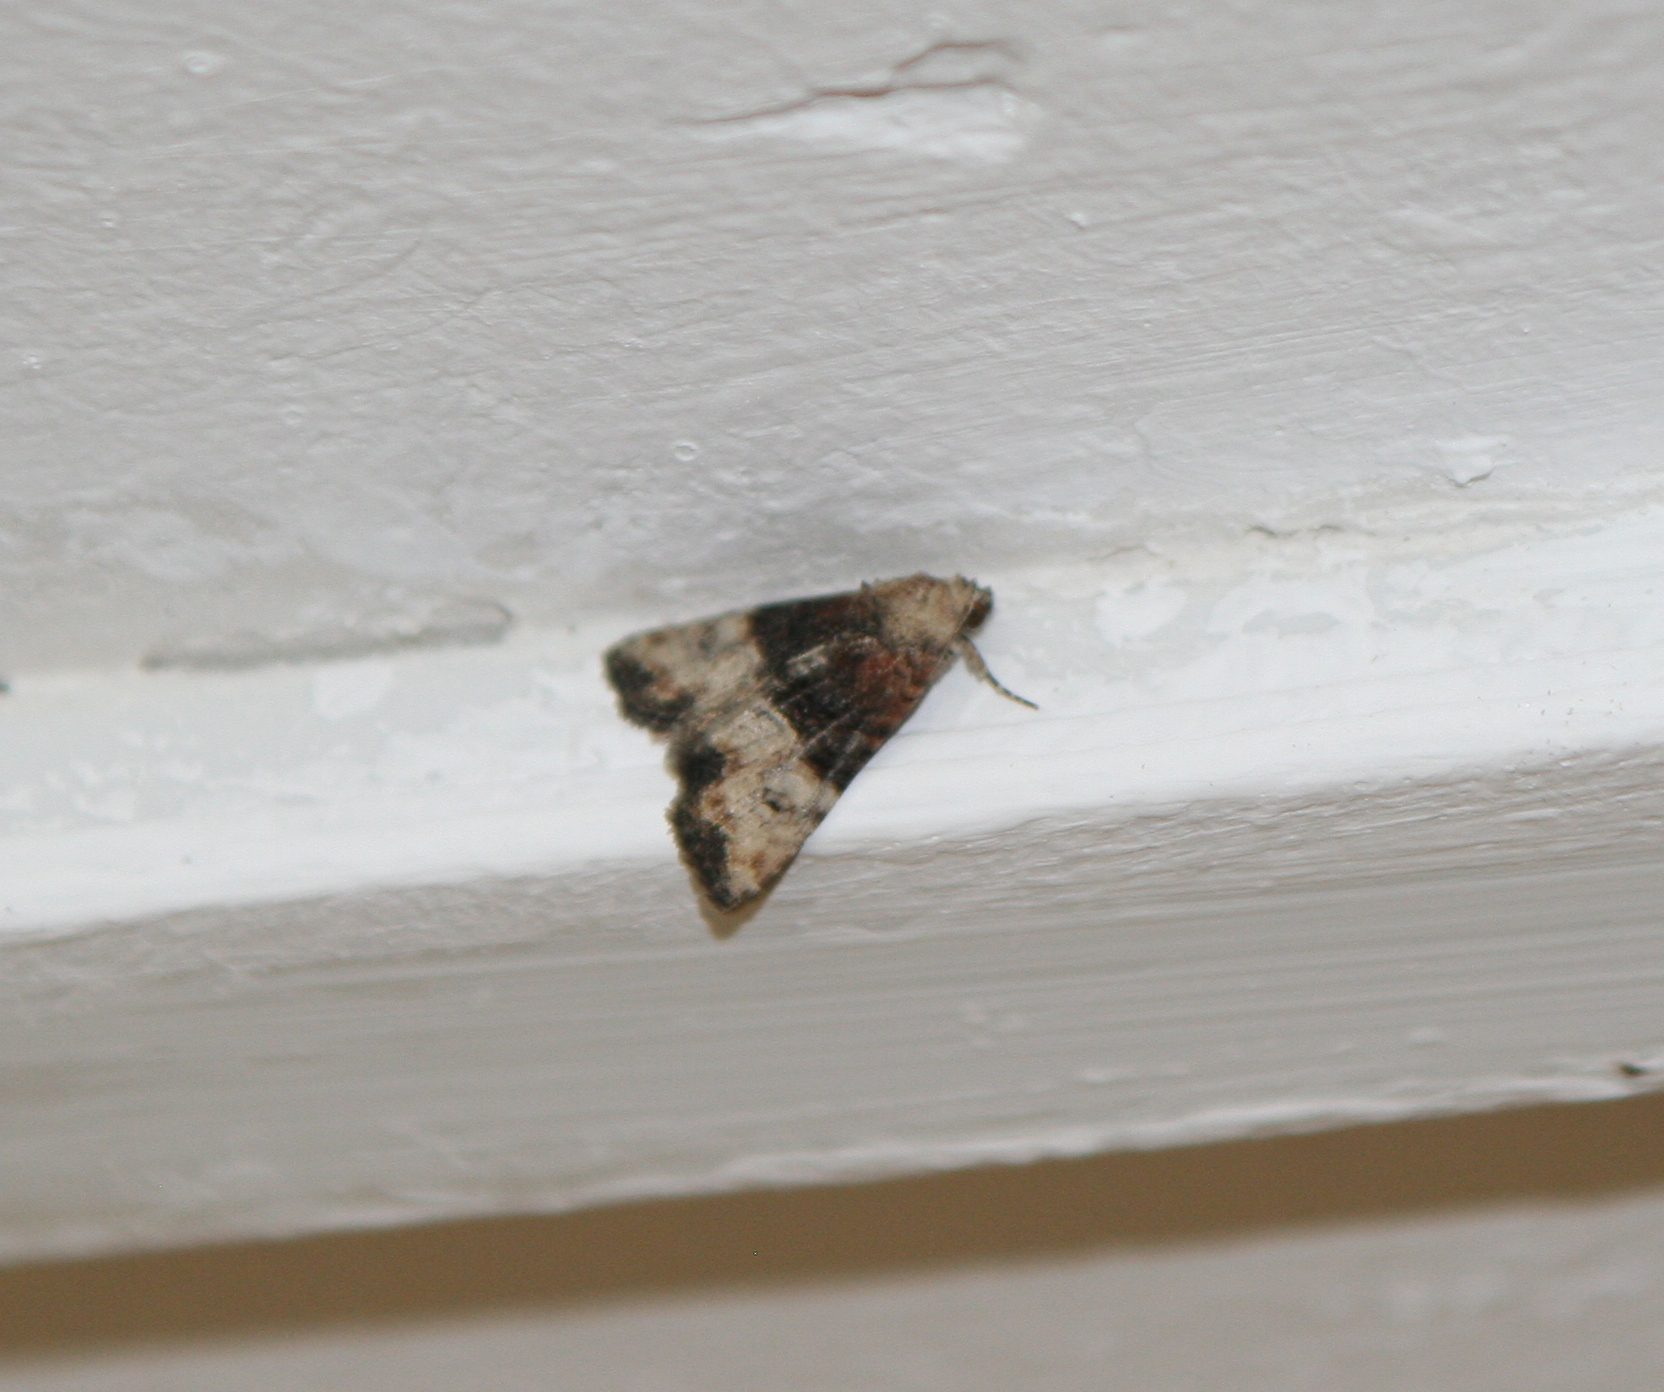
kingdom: Animalia
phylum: Arthropoda
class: Insecta
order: Lepidoptera
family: Noctuidae
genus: Mesoligia
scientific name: Mesoligia furuncula
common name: Cloaked minor
